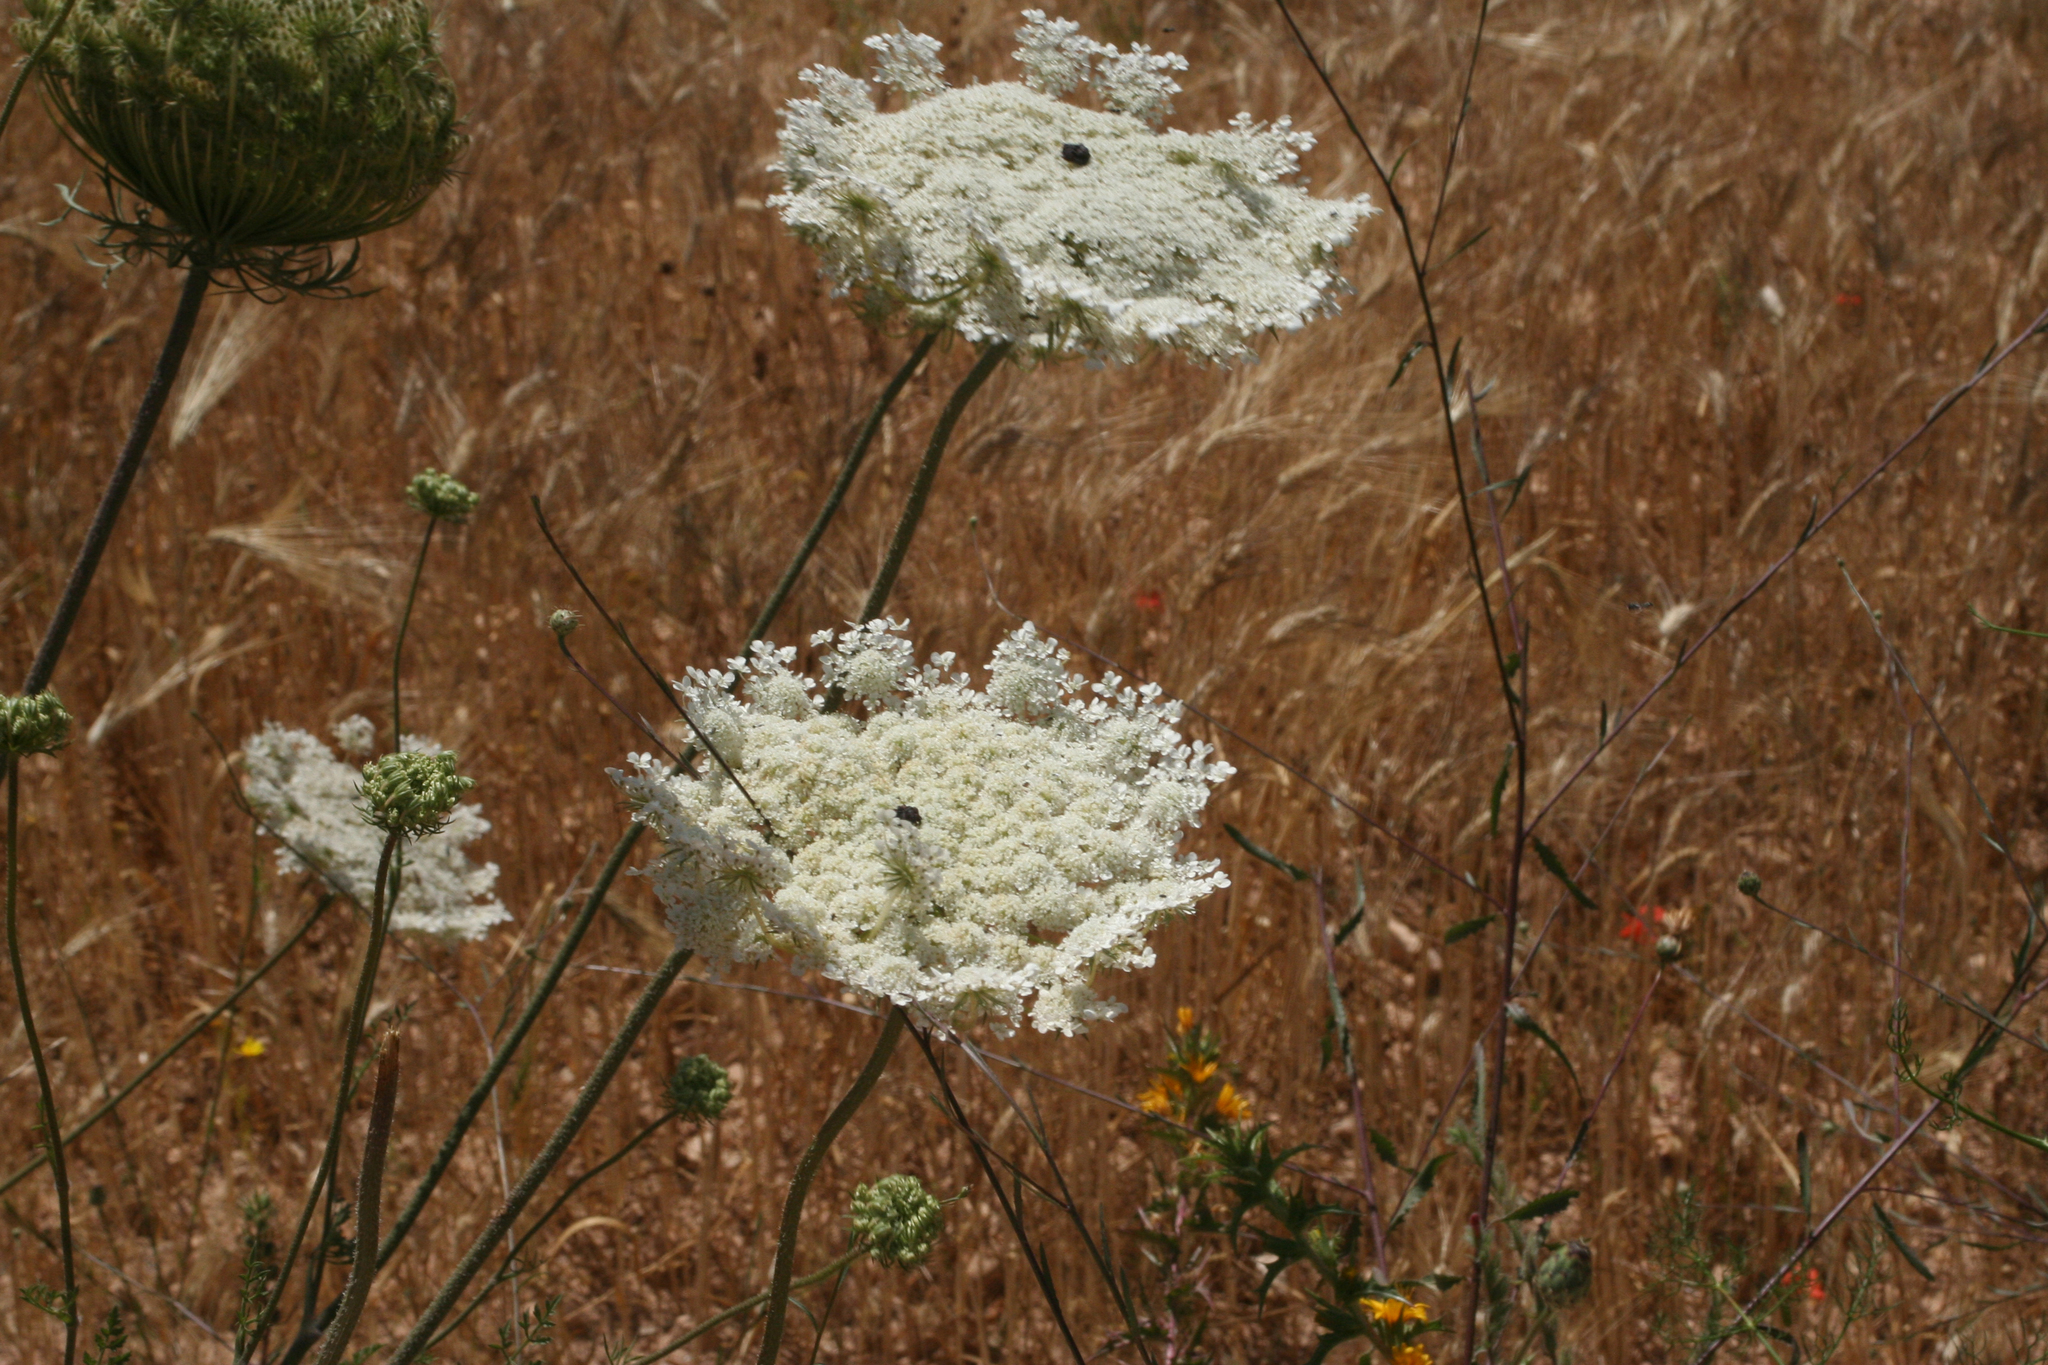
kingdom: Plantae
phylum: Tracheophyta
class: Magnoliopsida
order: Apiales
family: Apiaceae
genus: Daucus
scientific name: Daucus carota
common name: Wild carrot
